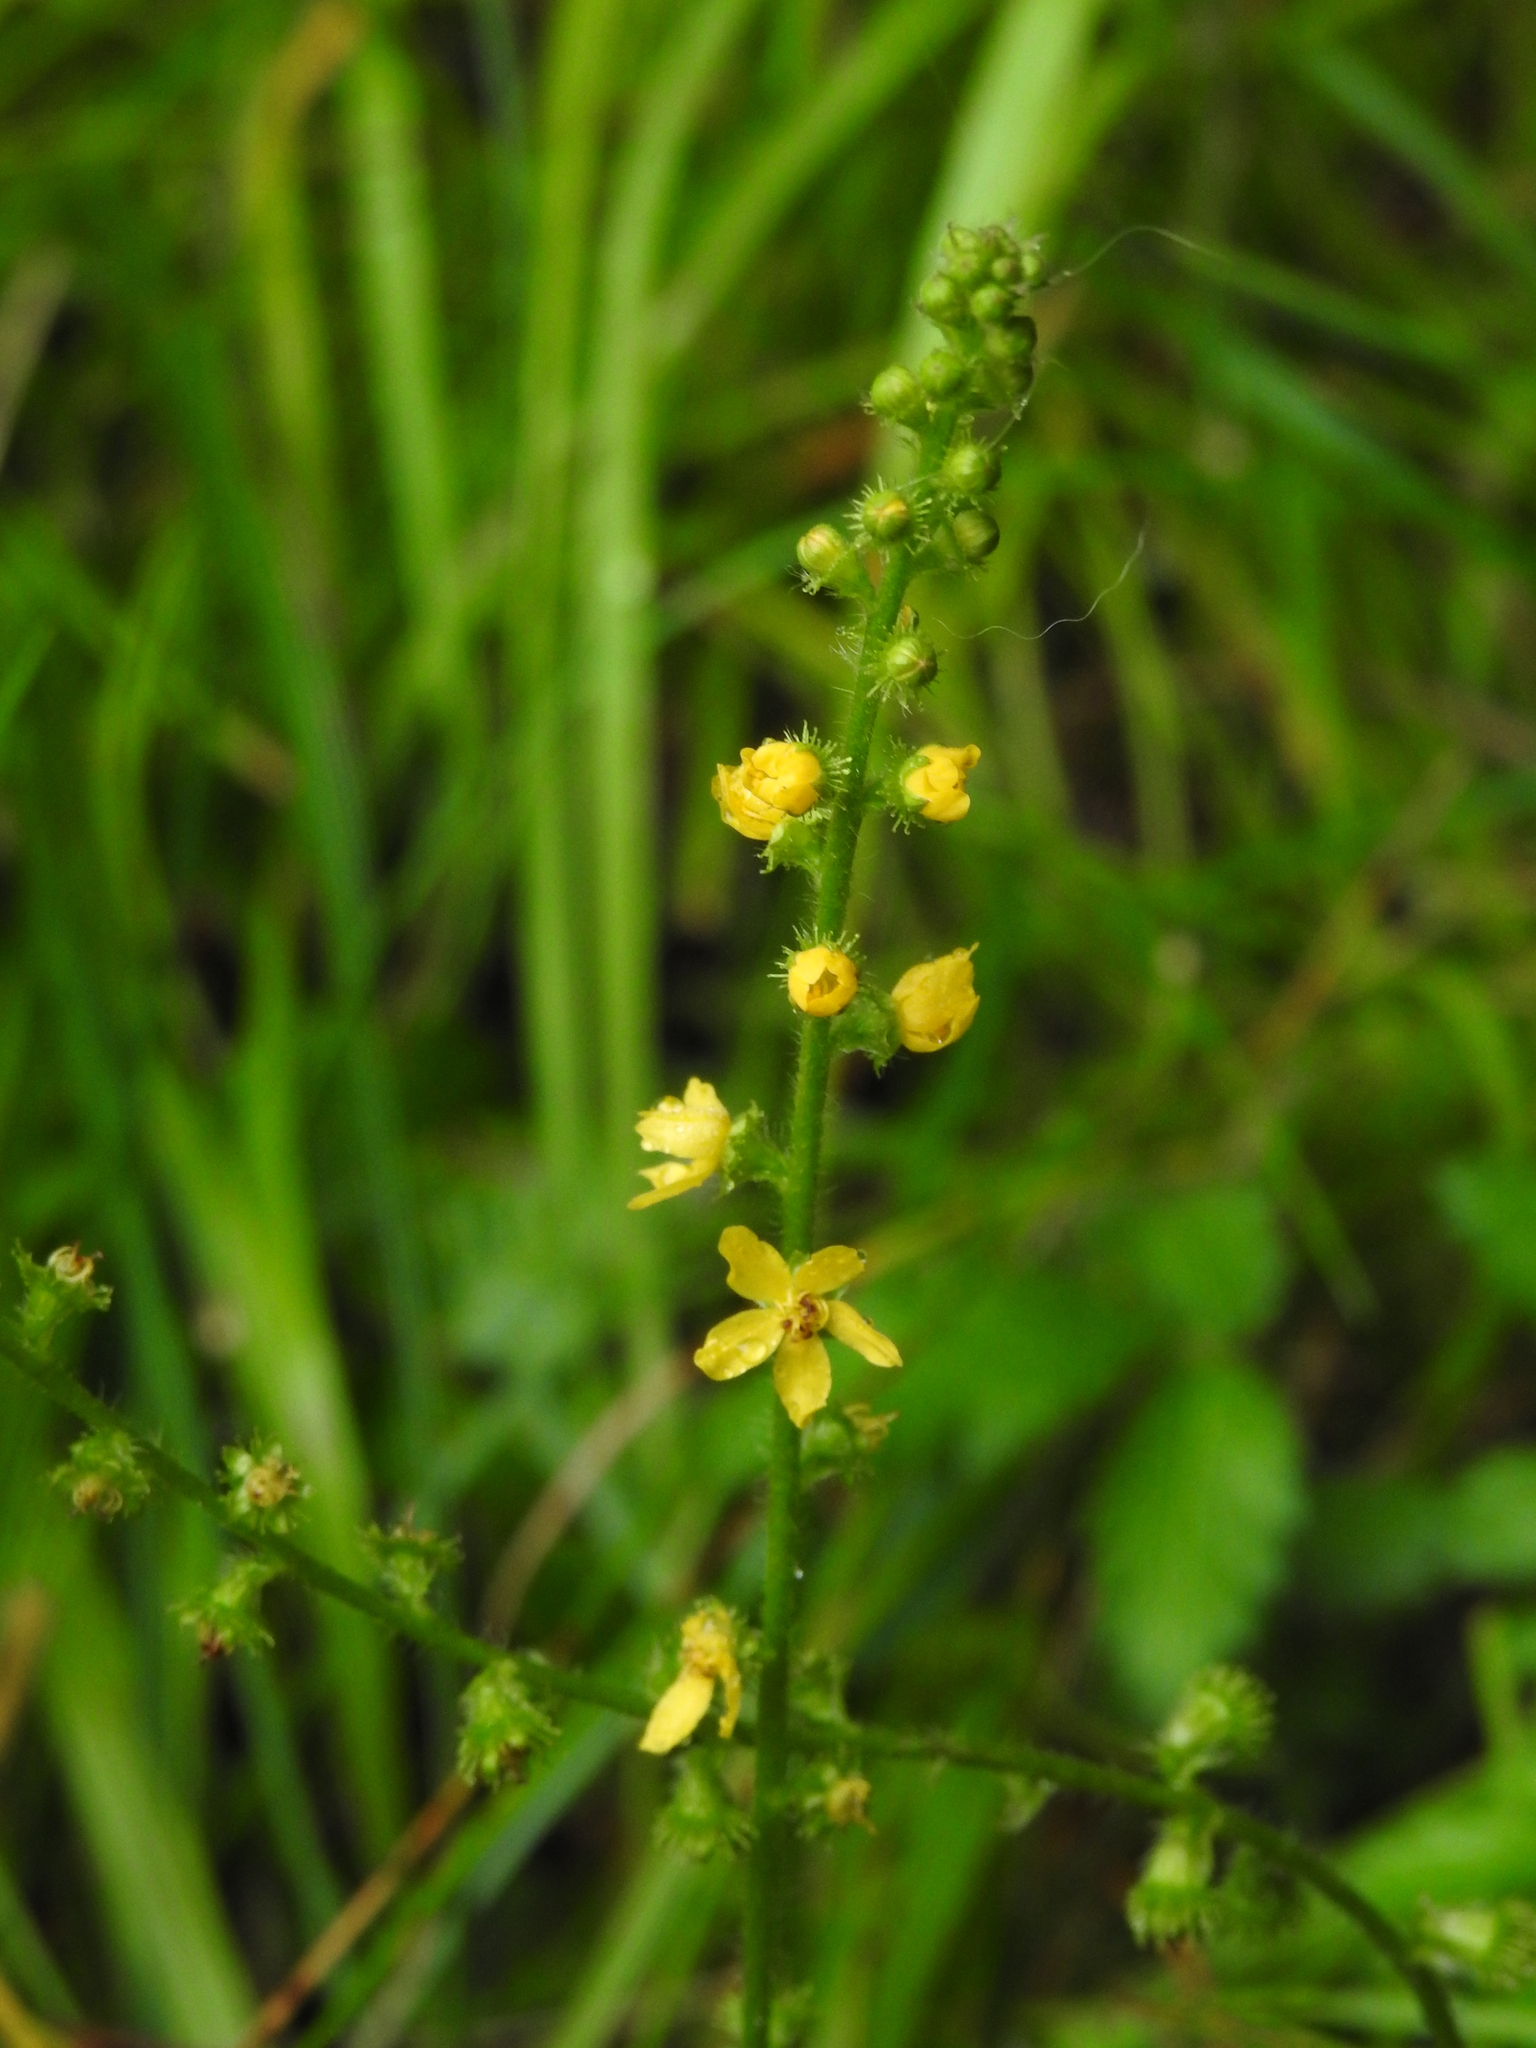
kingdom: Plantae
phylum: Tracheophyta
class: Magnoliopsida
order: Rosales
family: Rosaceae
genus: Agrimonia
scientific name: Agrimonia eupatoria
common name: Agrimony
